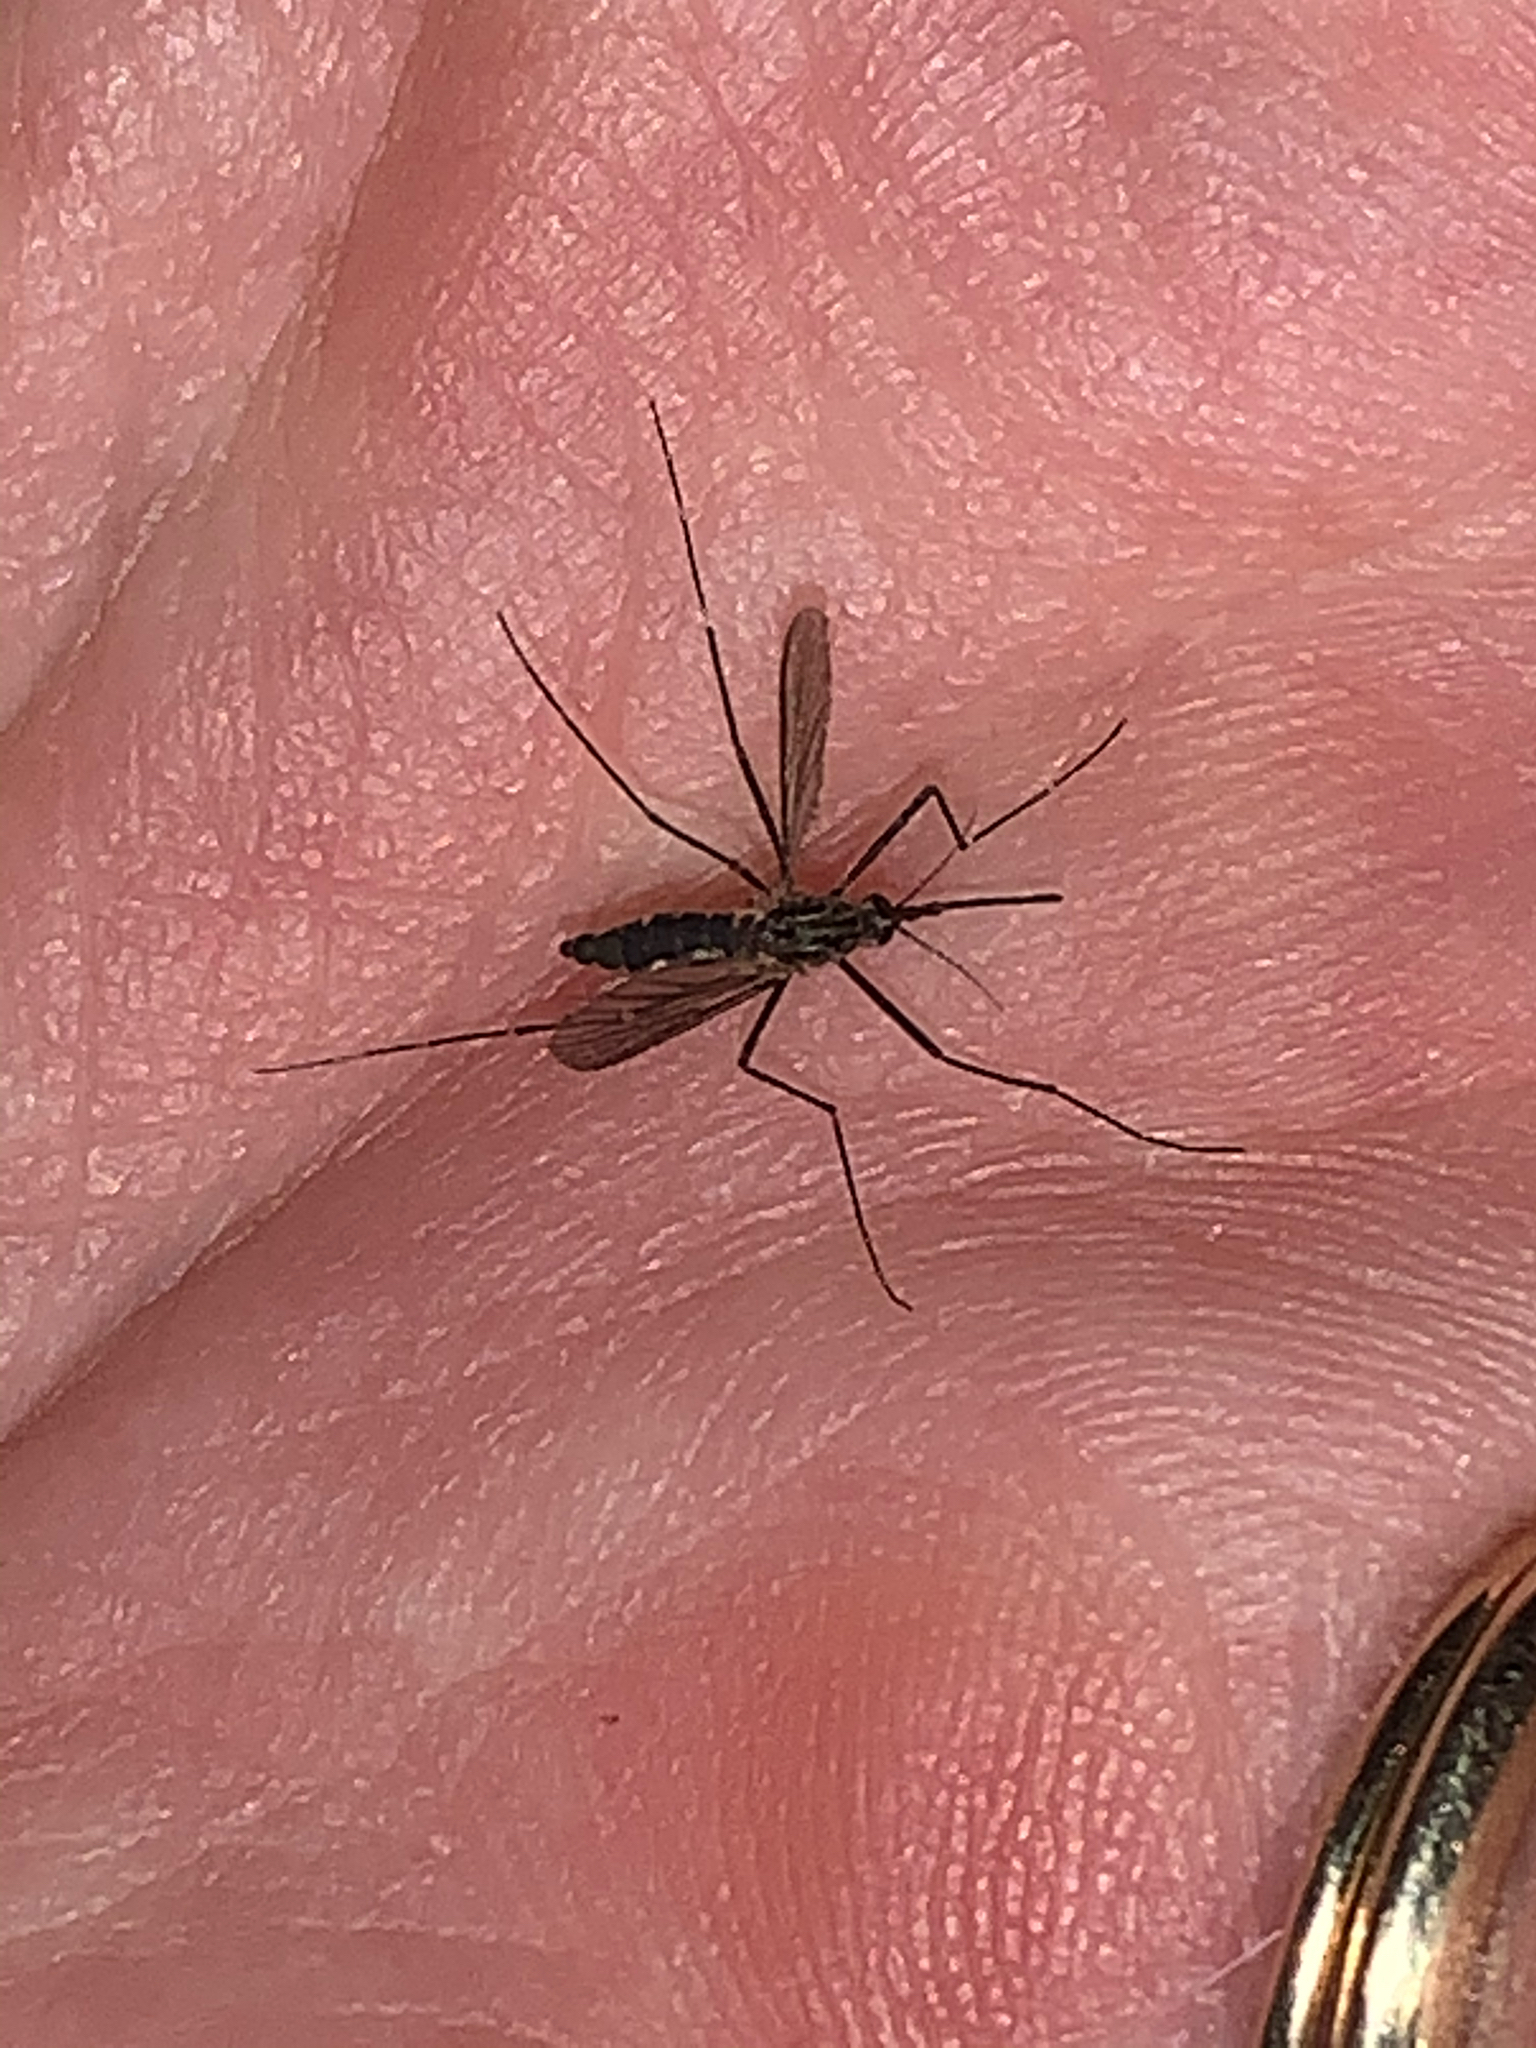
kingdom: Animalia
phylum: Arthropoda
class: Insecta
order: Diptera
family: Culicidae
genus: Aedes
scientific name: Aedes japonicus
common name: Asian bush mosquito
